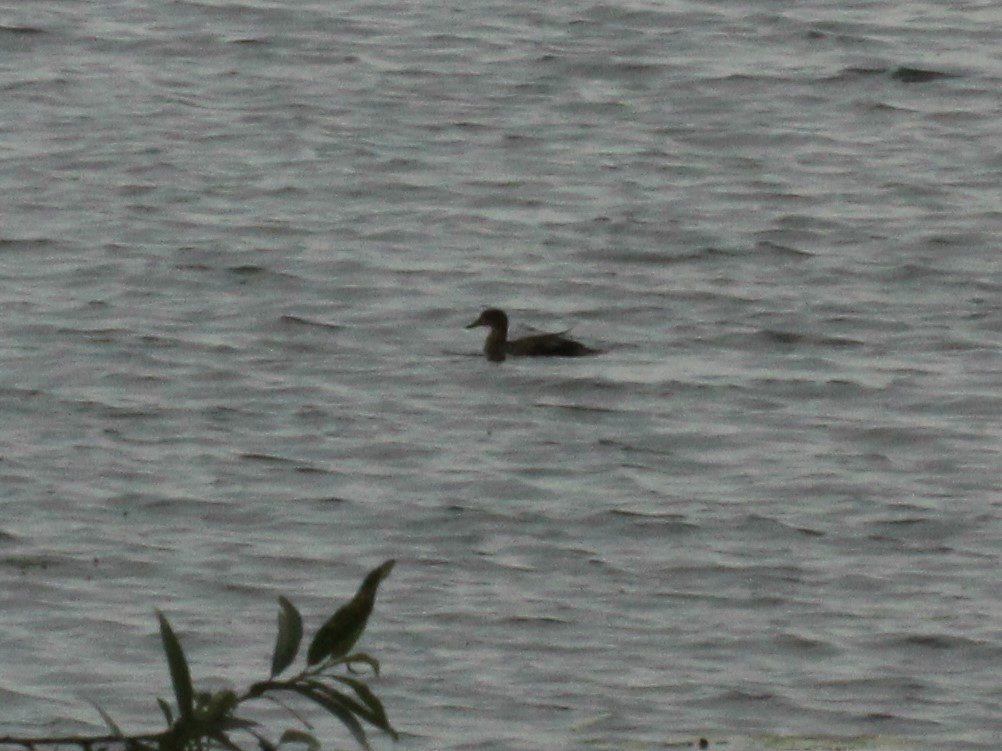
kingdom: Animalia
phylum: Chordata
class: Aves
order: Anseriformes
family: Anatidae
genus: Mareca
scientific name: Mareca strepera
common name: Gadwall
